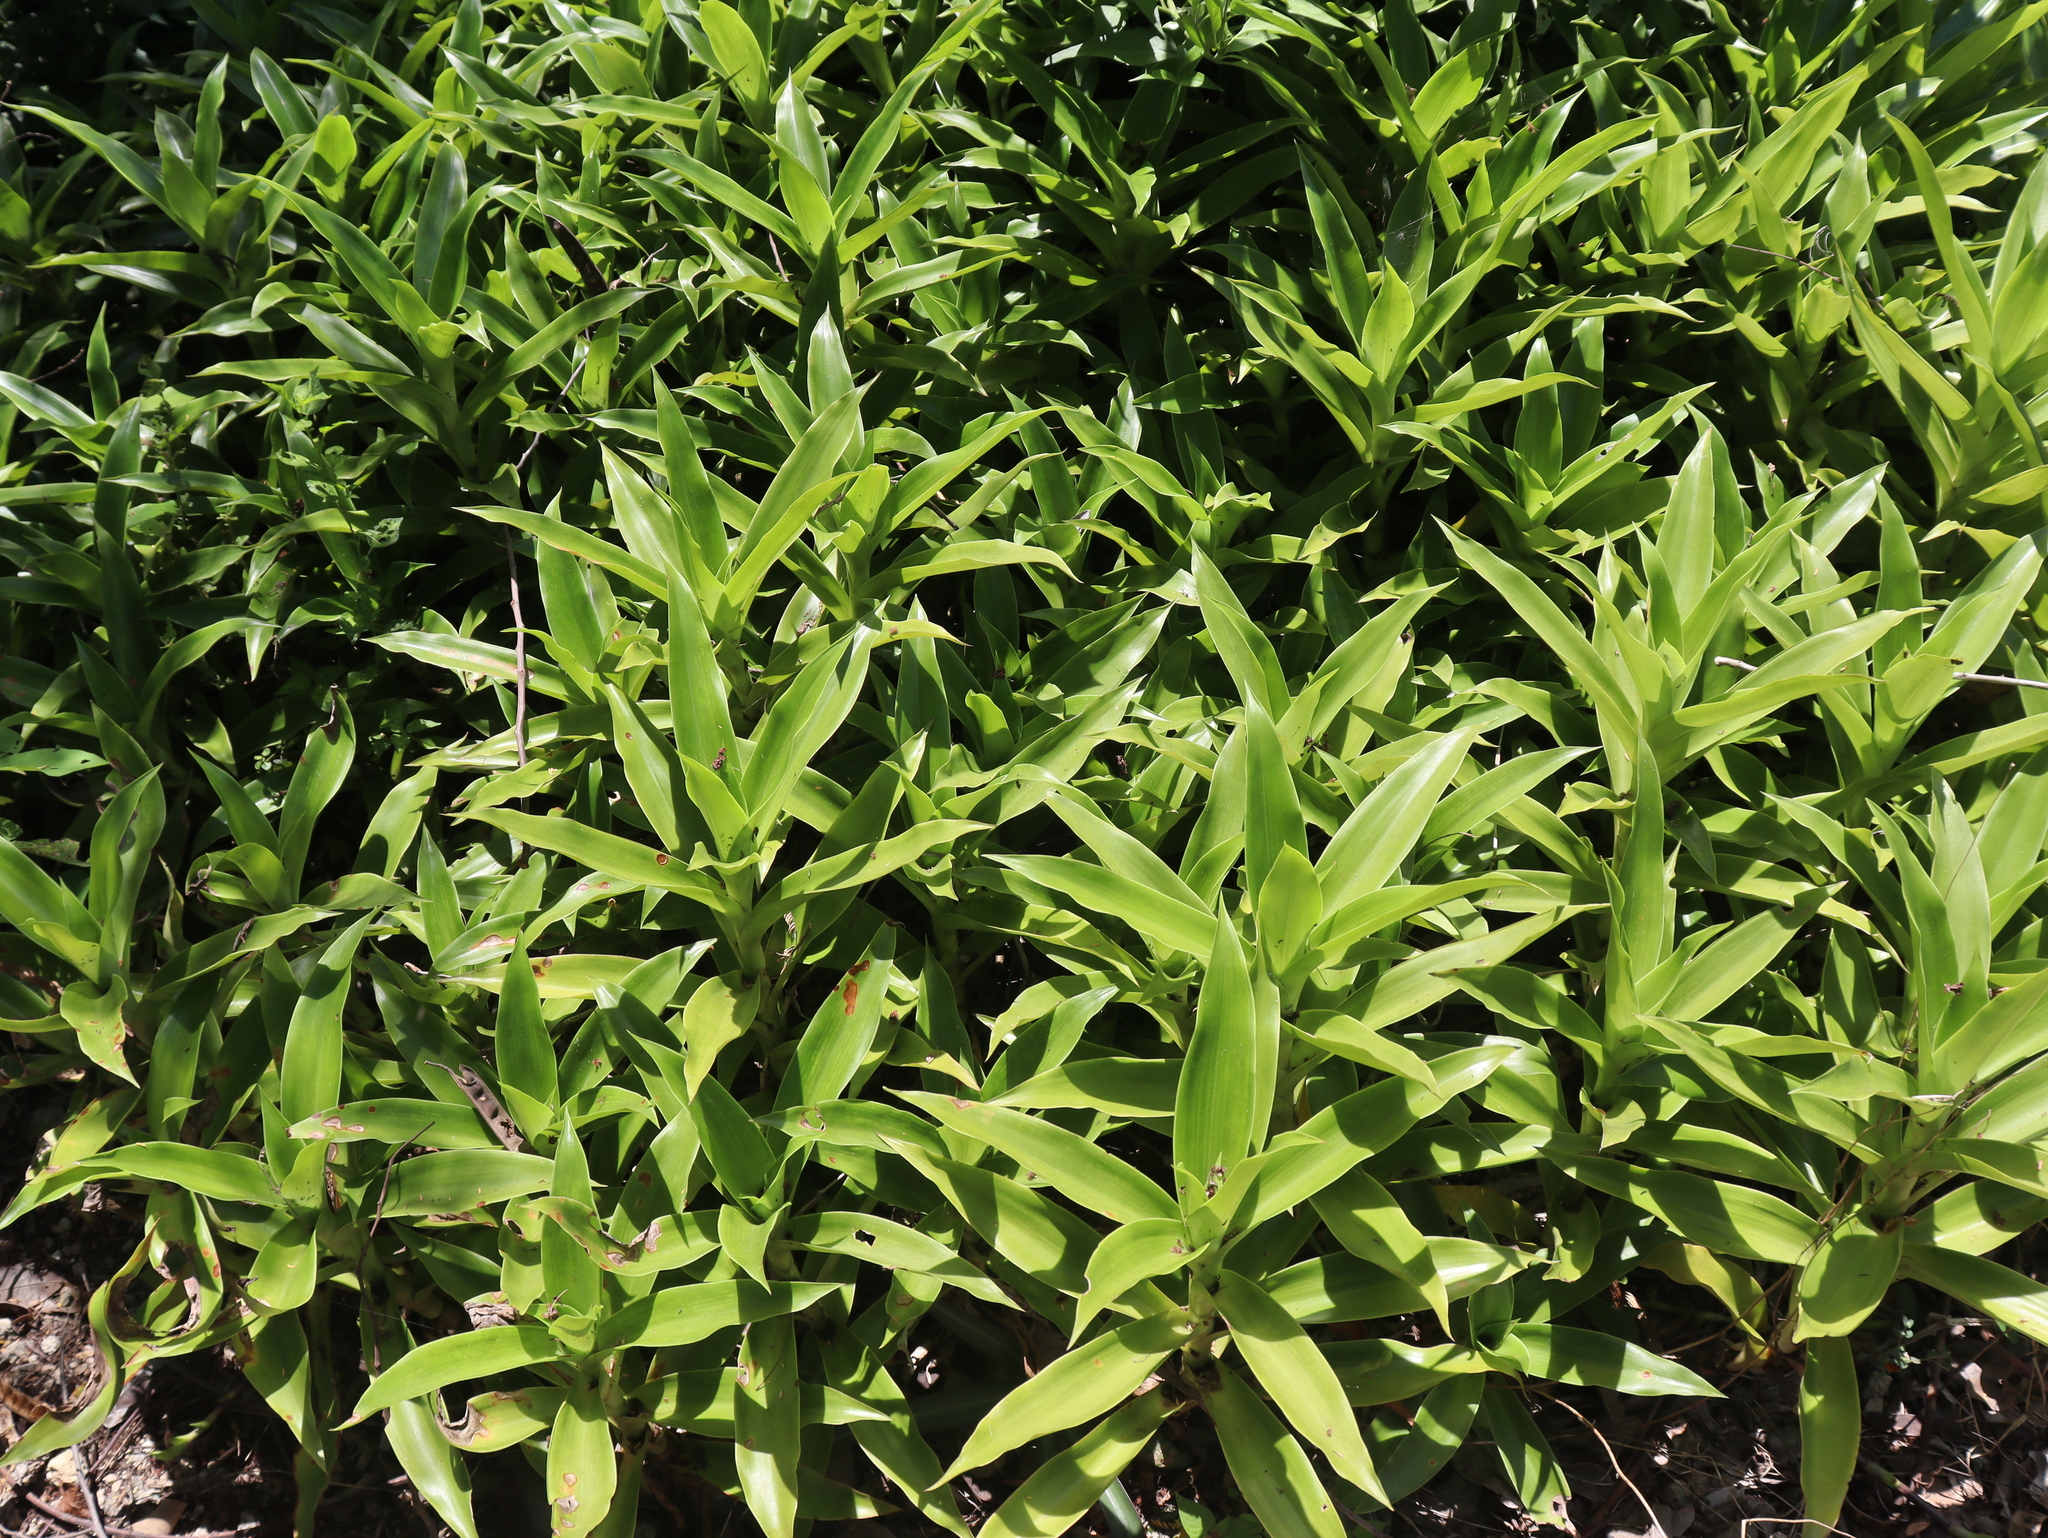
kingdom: Plantae
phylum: Tracheophyta
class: Liliopsida
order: Commelinales
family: Commelinaceae
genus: Callisia
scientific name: Callisia fragrans
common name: Basketplant
